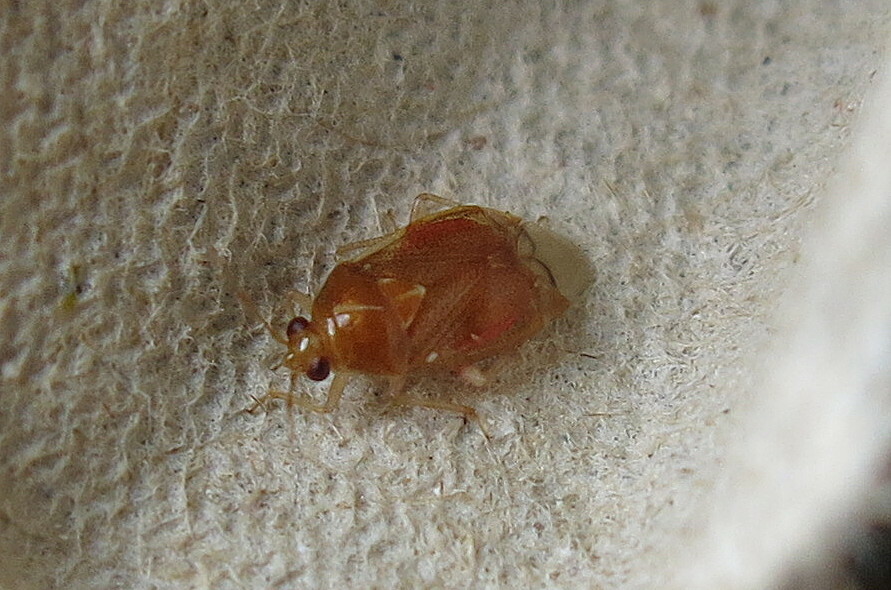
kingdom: Animalia
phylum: Arthropoda
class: Insecta
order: Hemiptera
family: Miridae
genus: Deraeocoris
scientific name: Deraeocoris lutescens
